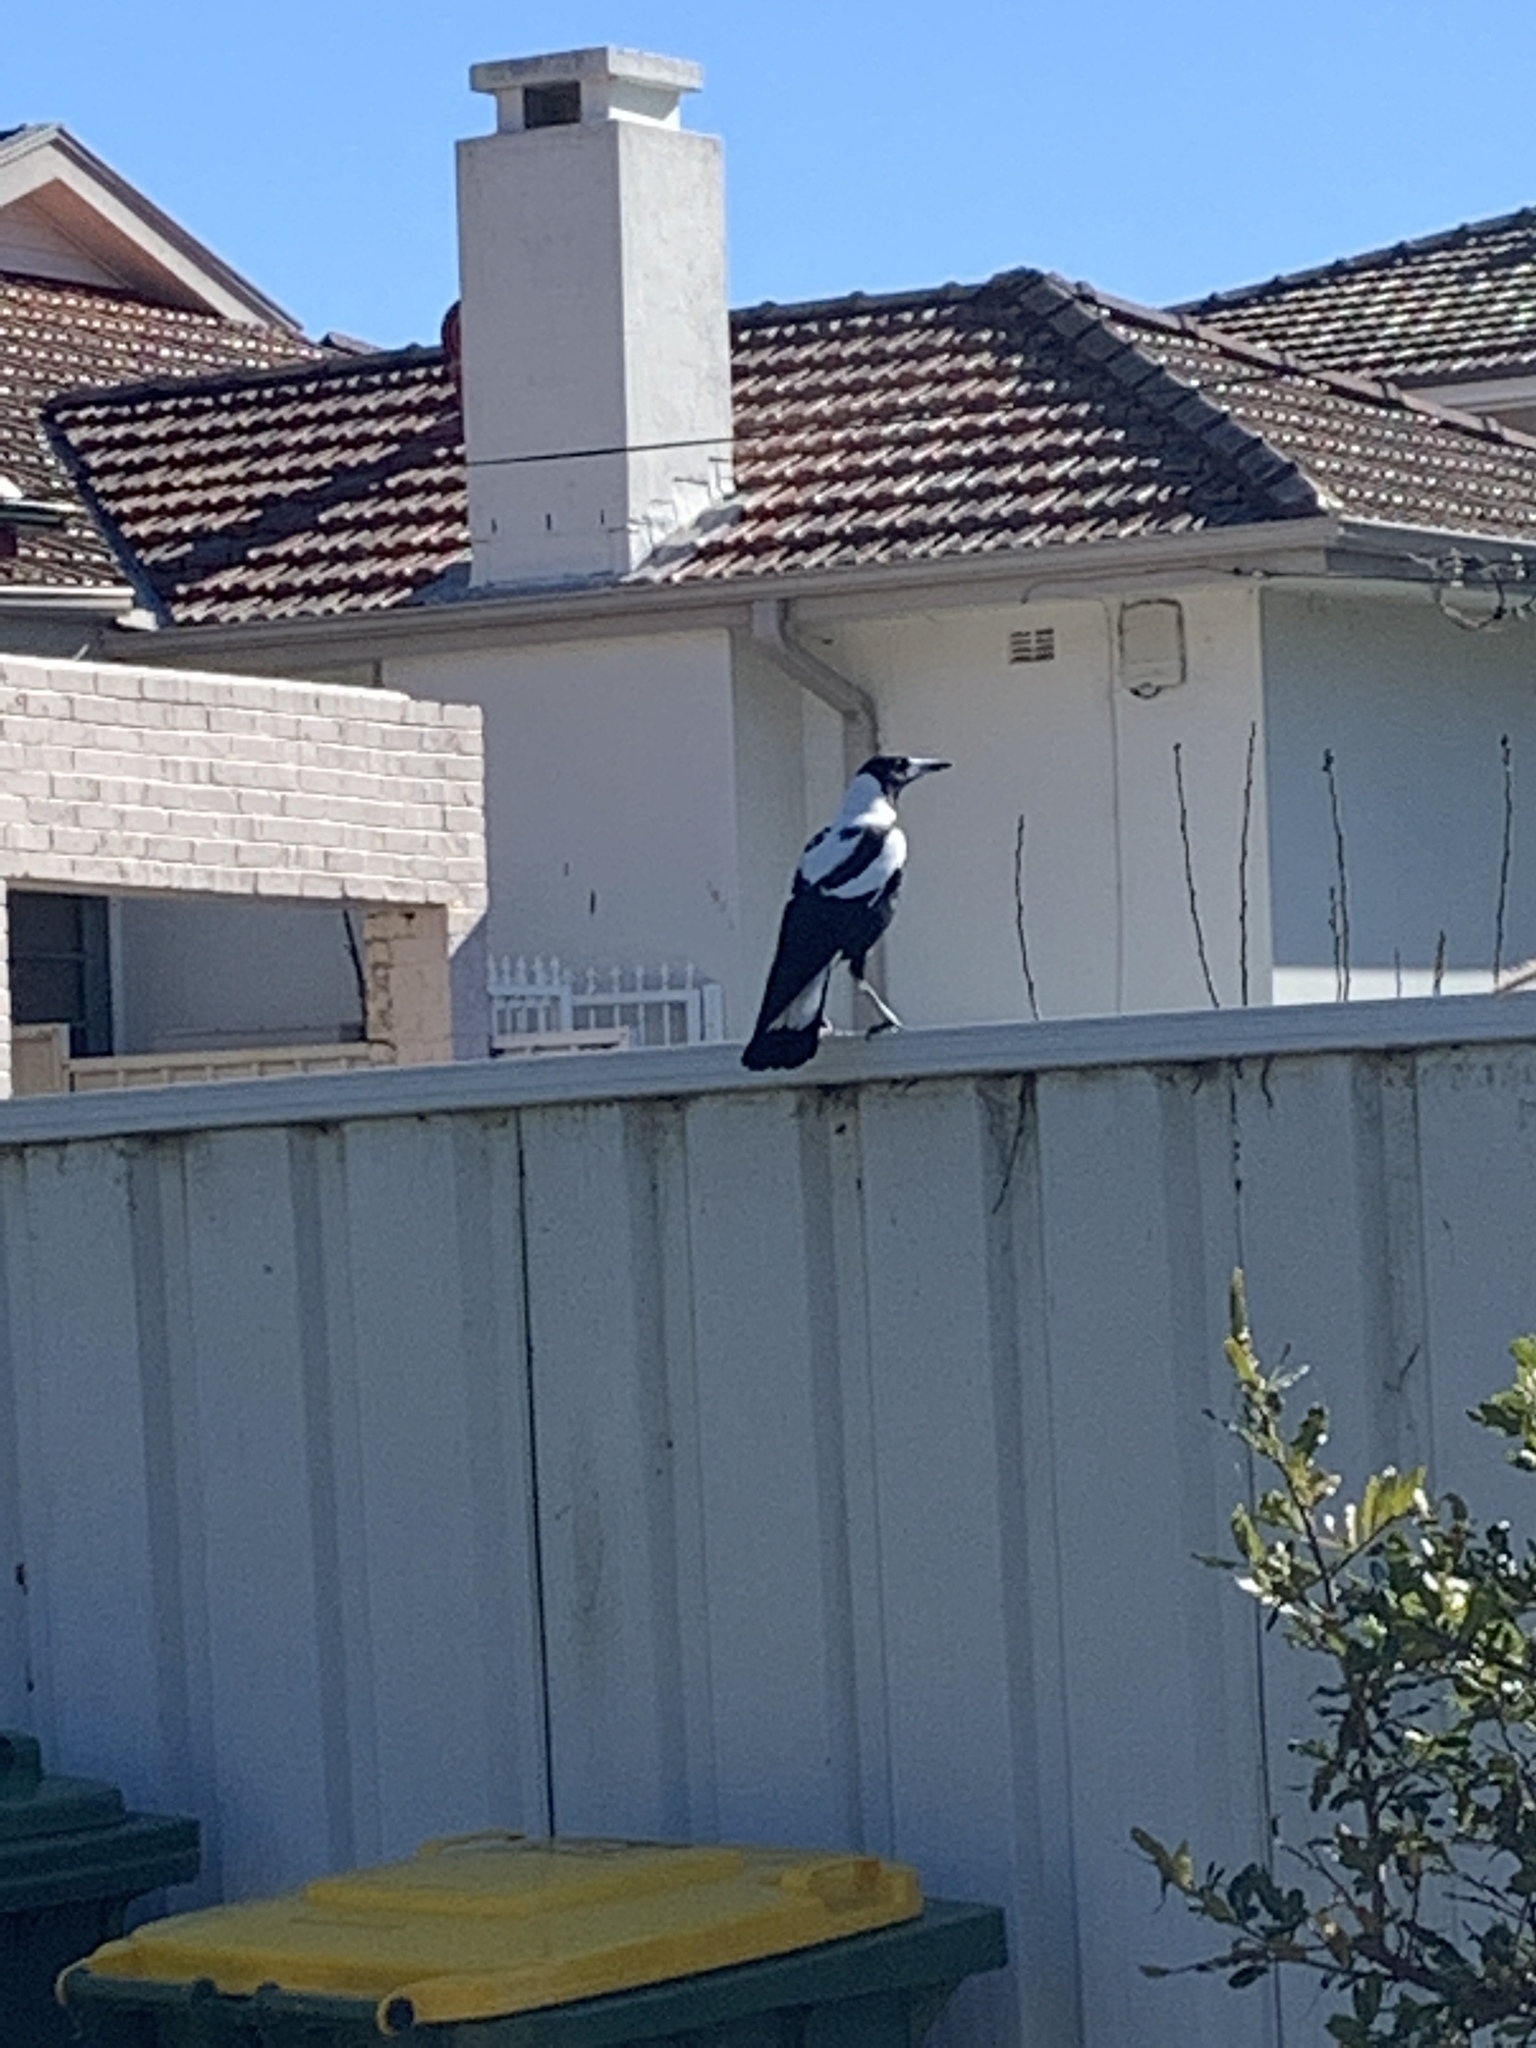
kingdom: Animalia
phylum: Chordata
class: Aves
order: Passeriformes
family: Cracticidae
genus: Gymnorhina
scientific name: Gymnorhina tibicen
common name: Australian magpie
